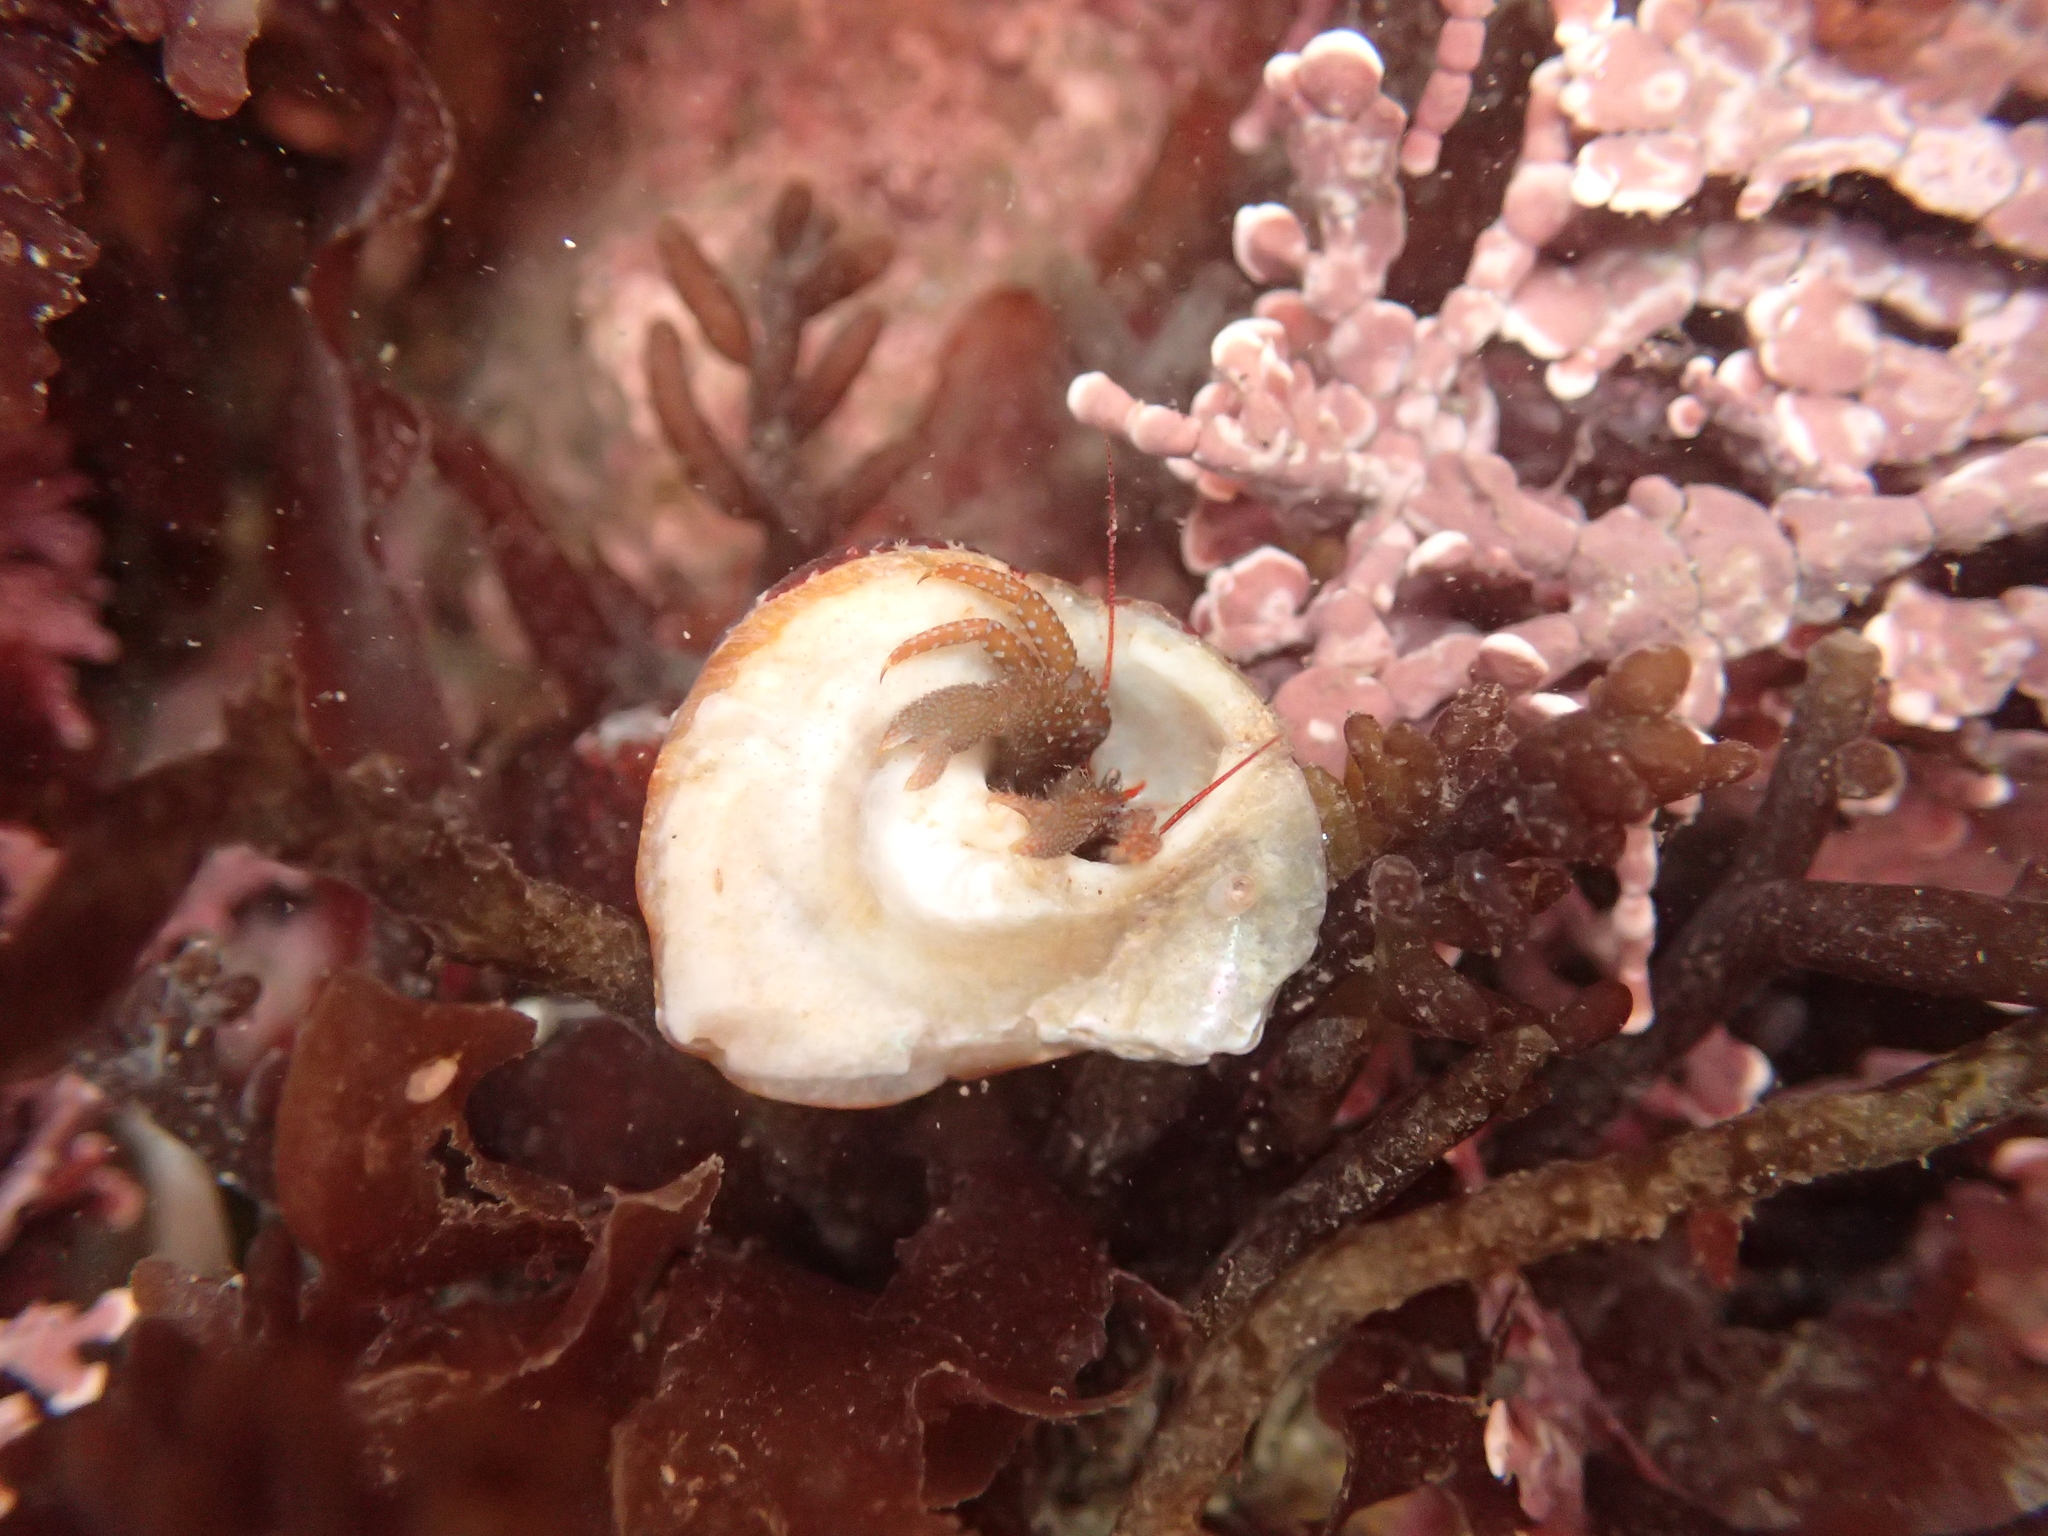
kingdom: Animalia
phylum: Arthropoda
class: Malacostraca
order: Decapoda
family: Paguridae
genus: Pagurus
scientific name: Pagurus granosimanus
